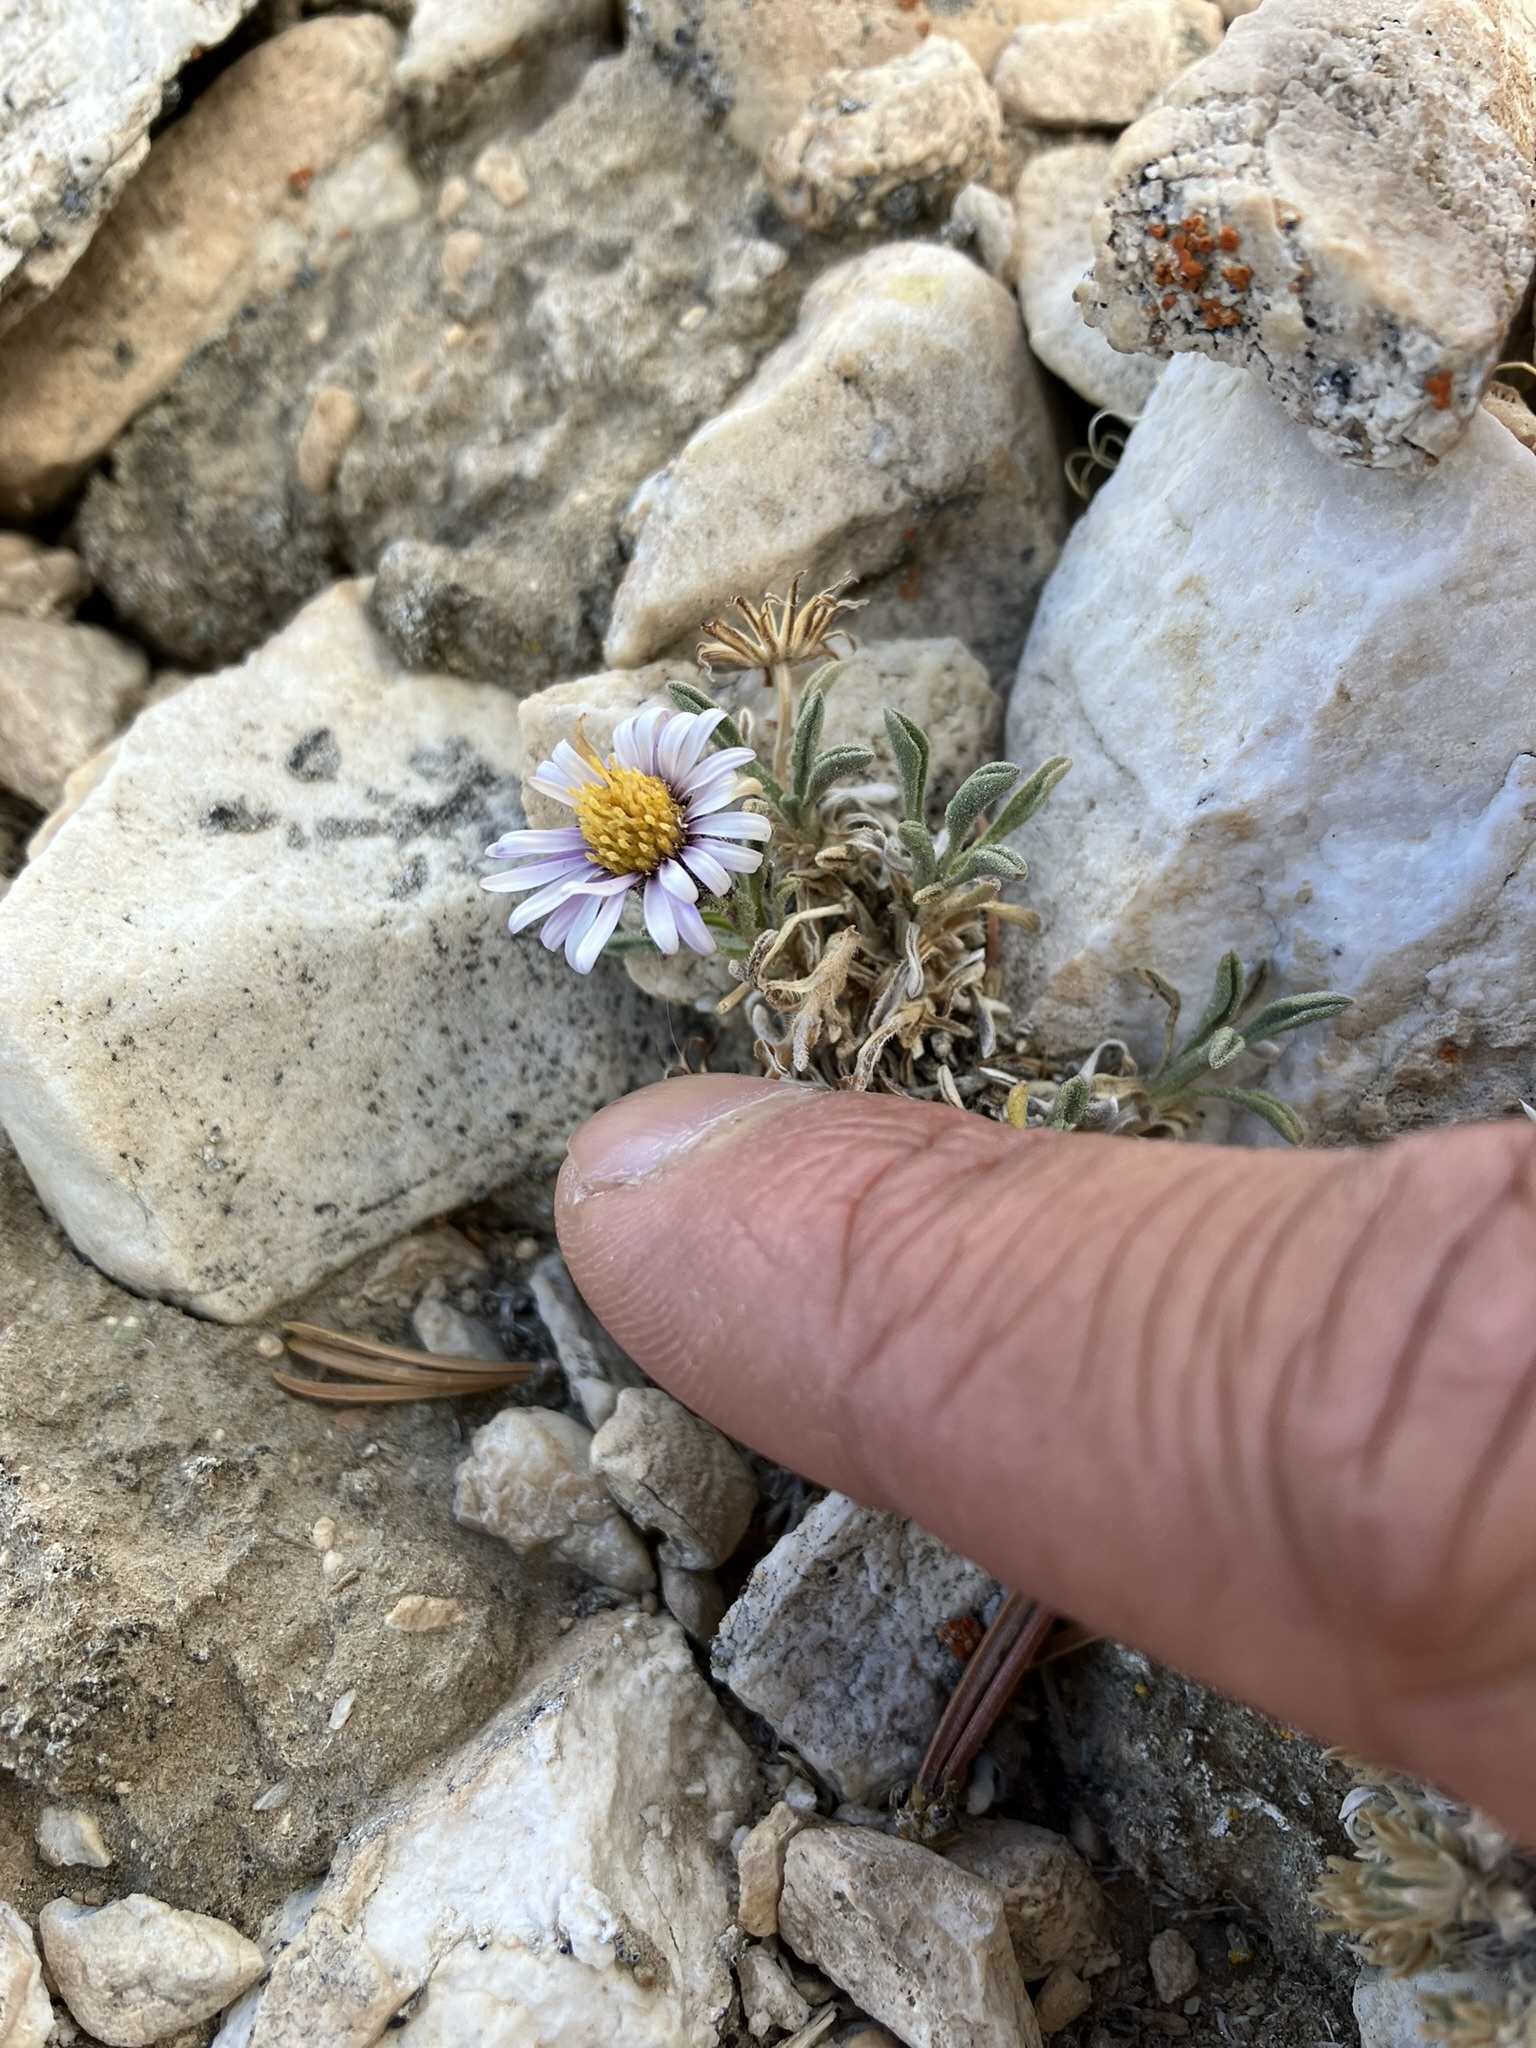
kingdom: Plantae
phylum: Tracheophyta
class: Magnoliopsida
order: Asterales
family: Asteraceae
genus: Erigeron
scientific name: Erigeron pygmaeus
